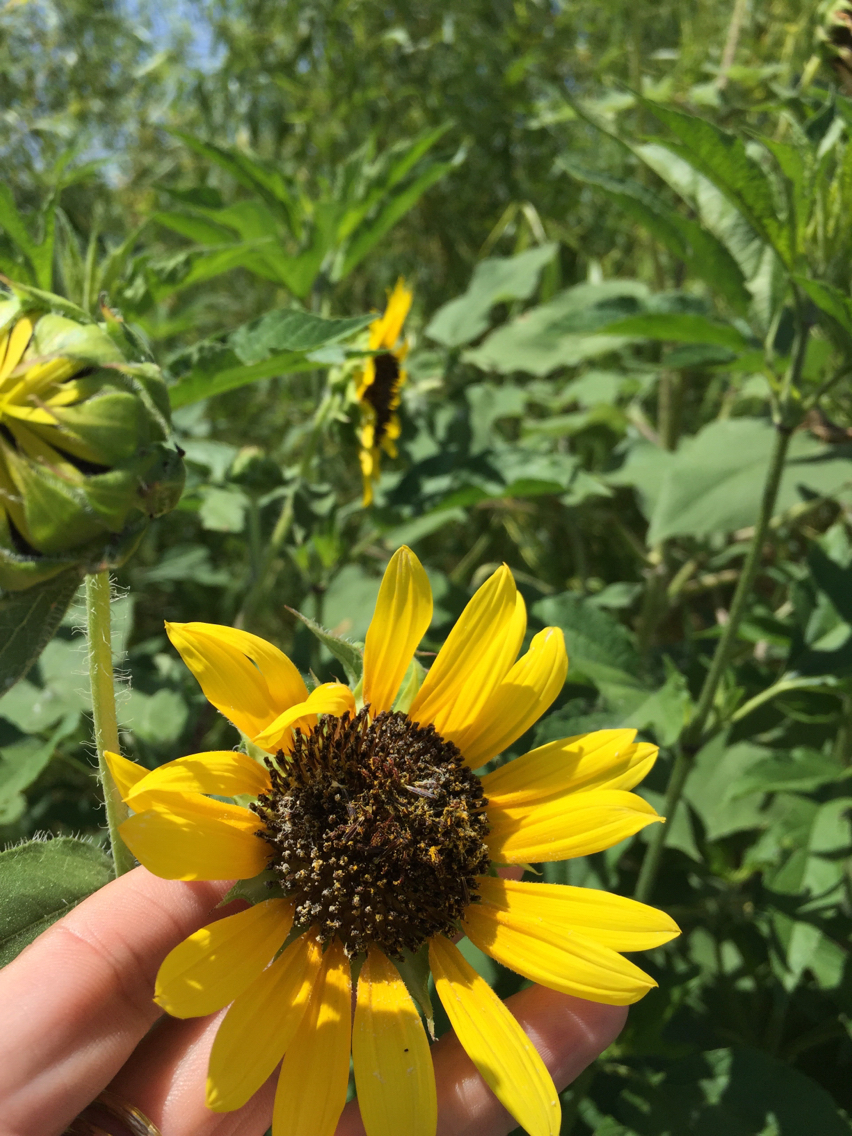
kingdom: Plantae
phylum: Tracheophyta
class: Magnoliopsida
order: Asterales
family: Asteraceae
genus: Helianthus
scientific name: Helianthus annuus
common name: Sunflower
